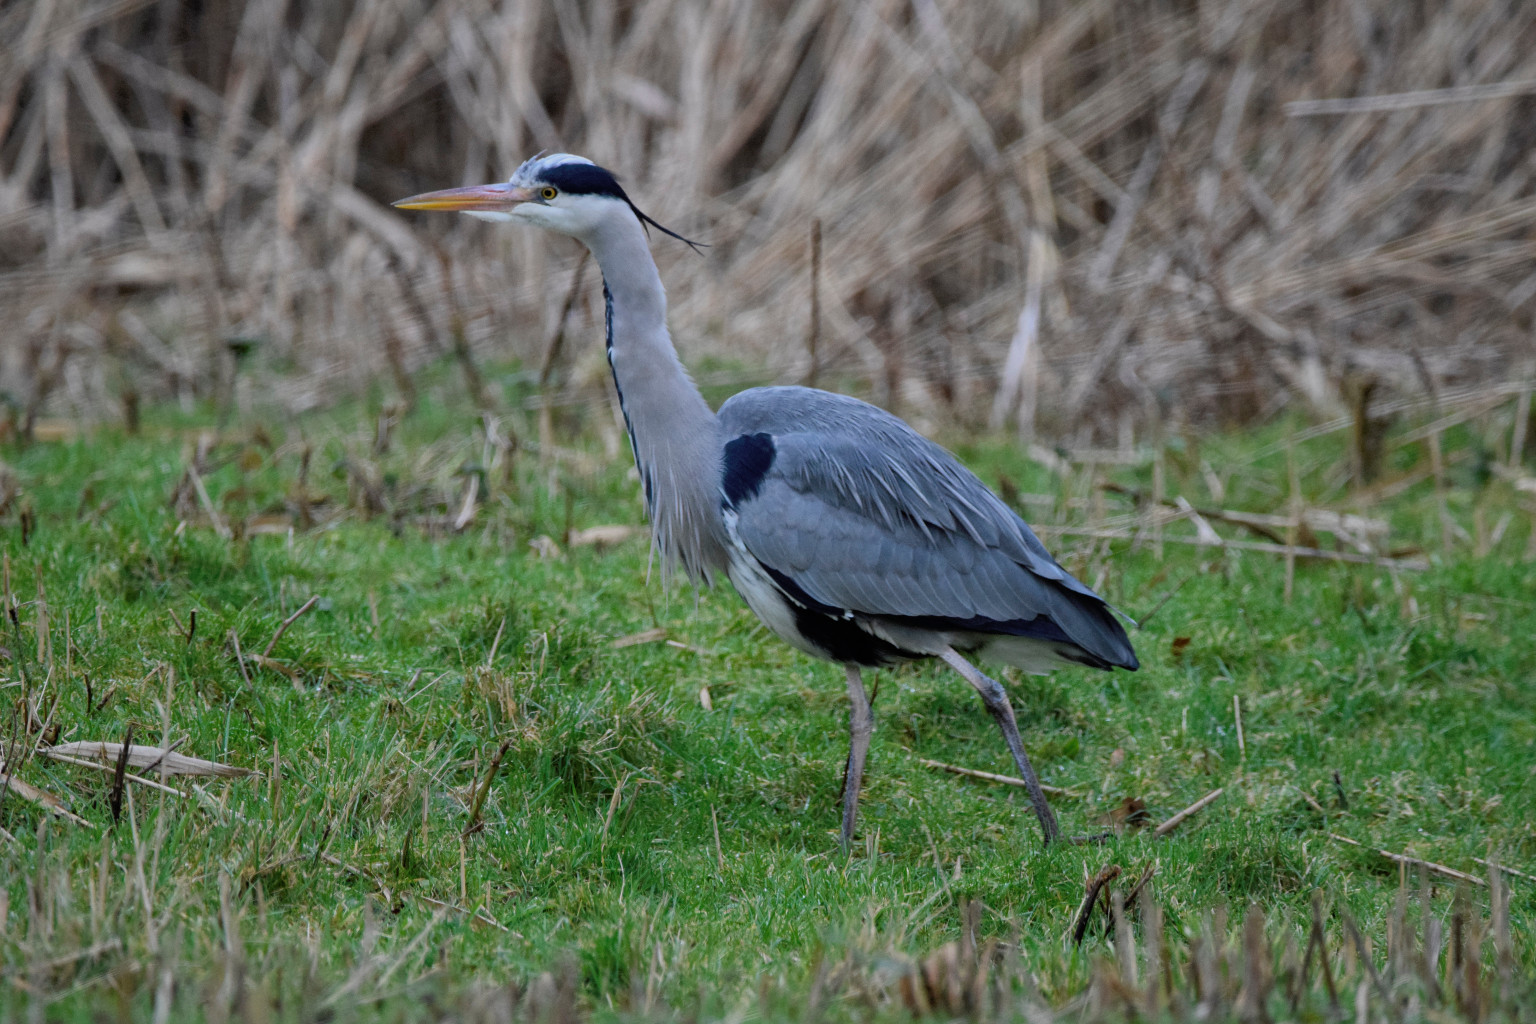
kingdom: Animalia
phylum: Chordata
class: Aves
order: Pelecaniformes
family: Ardeidae
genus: Ardea
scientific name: Ardea cinerea
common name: Grey heron
